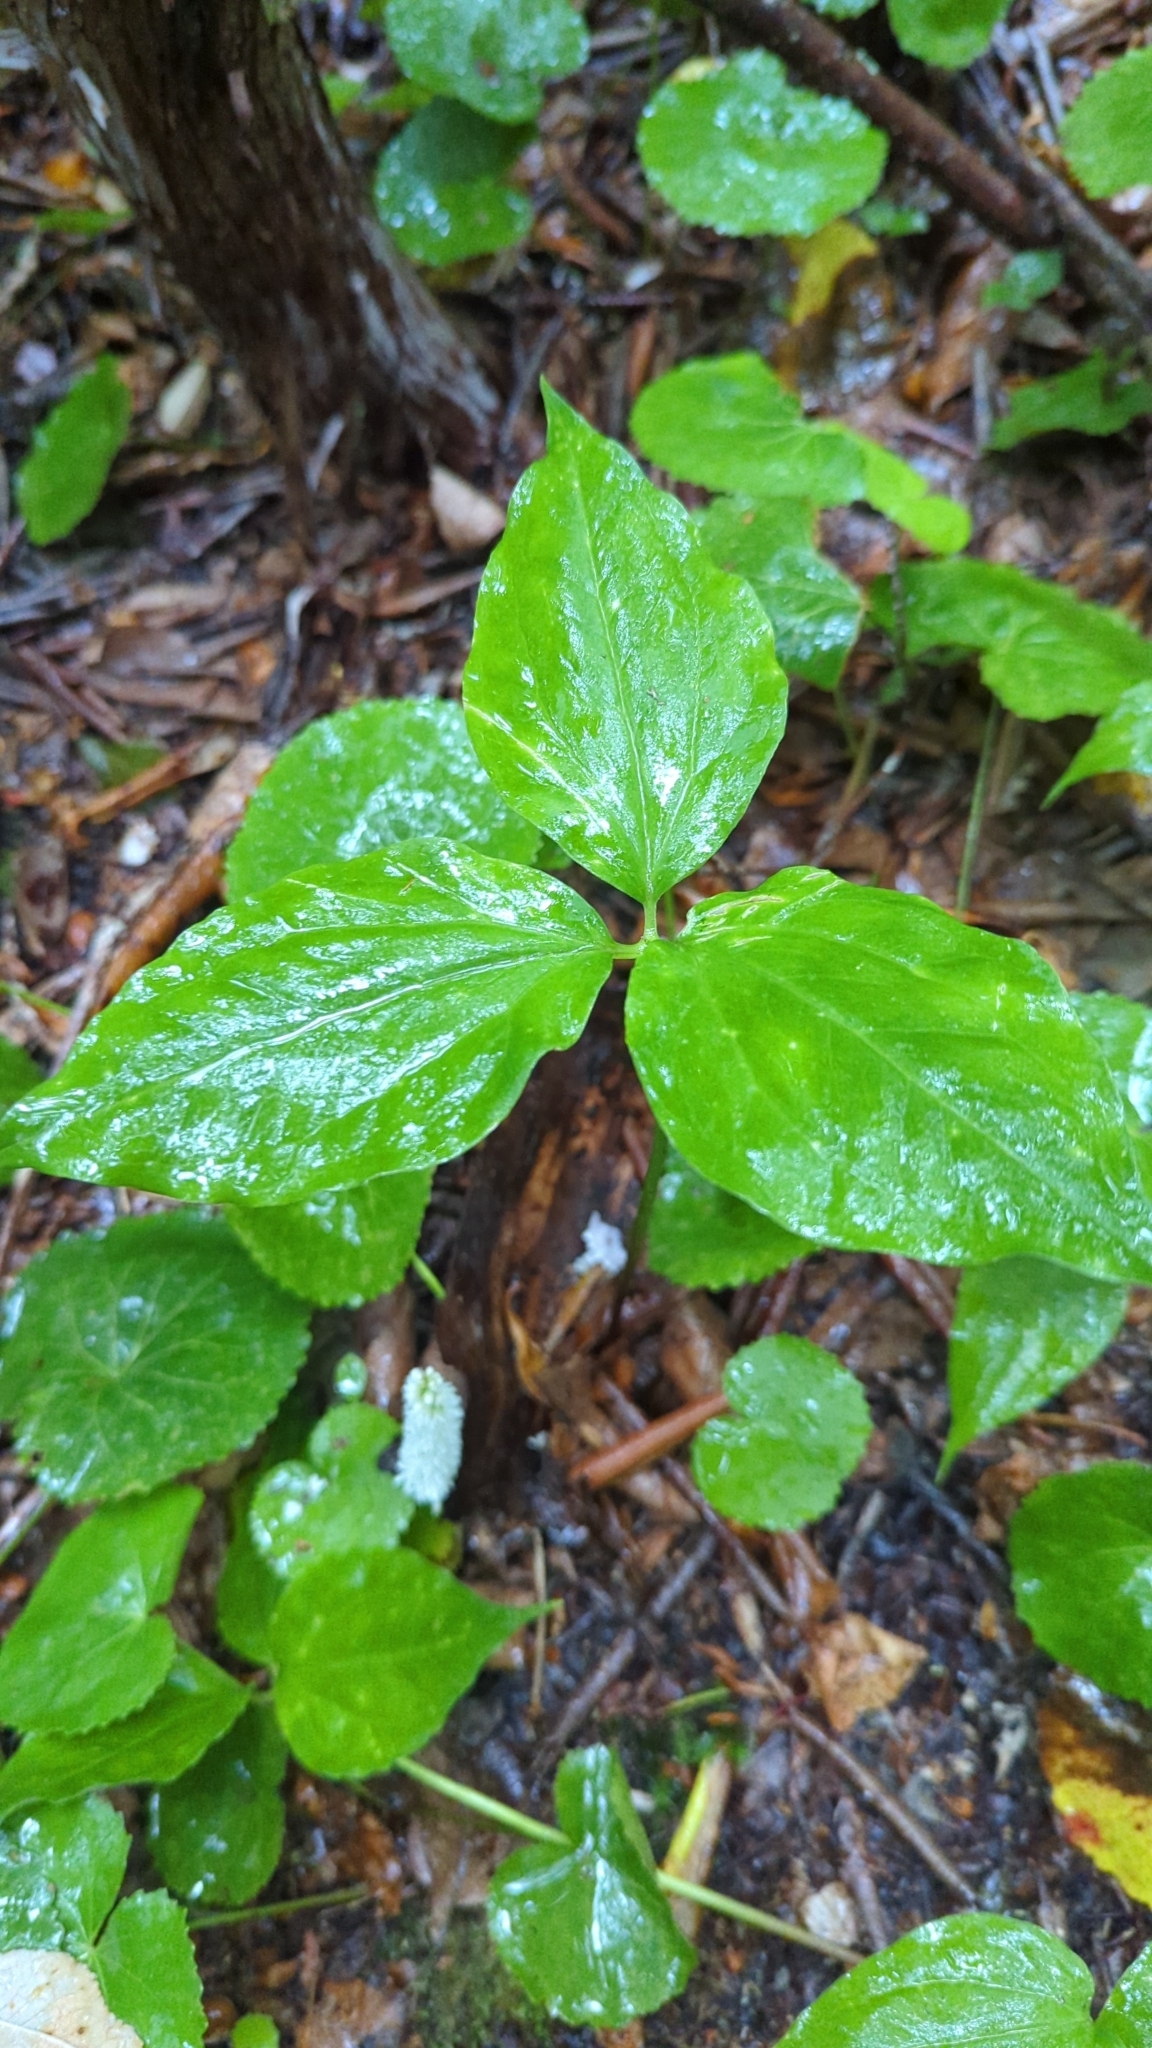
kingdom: Plantae
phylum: Tracheophyta
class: Liliopsida
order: Liliales
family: Melanthiaceae
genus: Trillium
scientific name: Trillium undulatum
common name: Paint trillium
